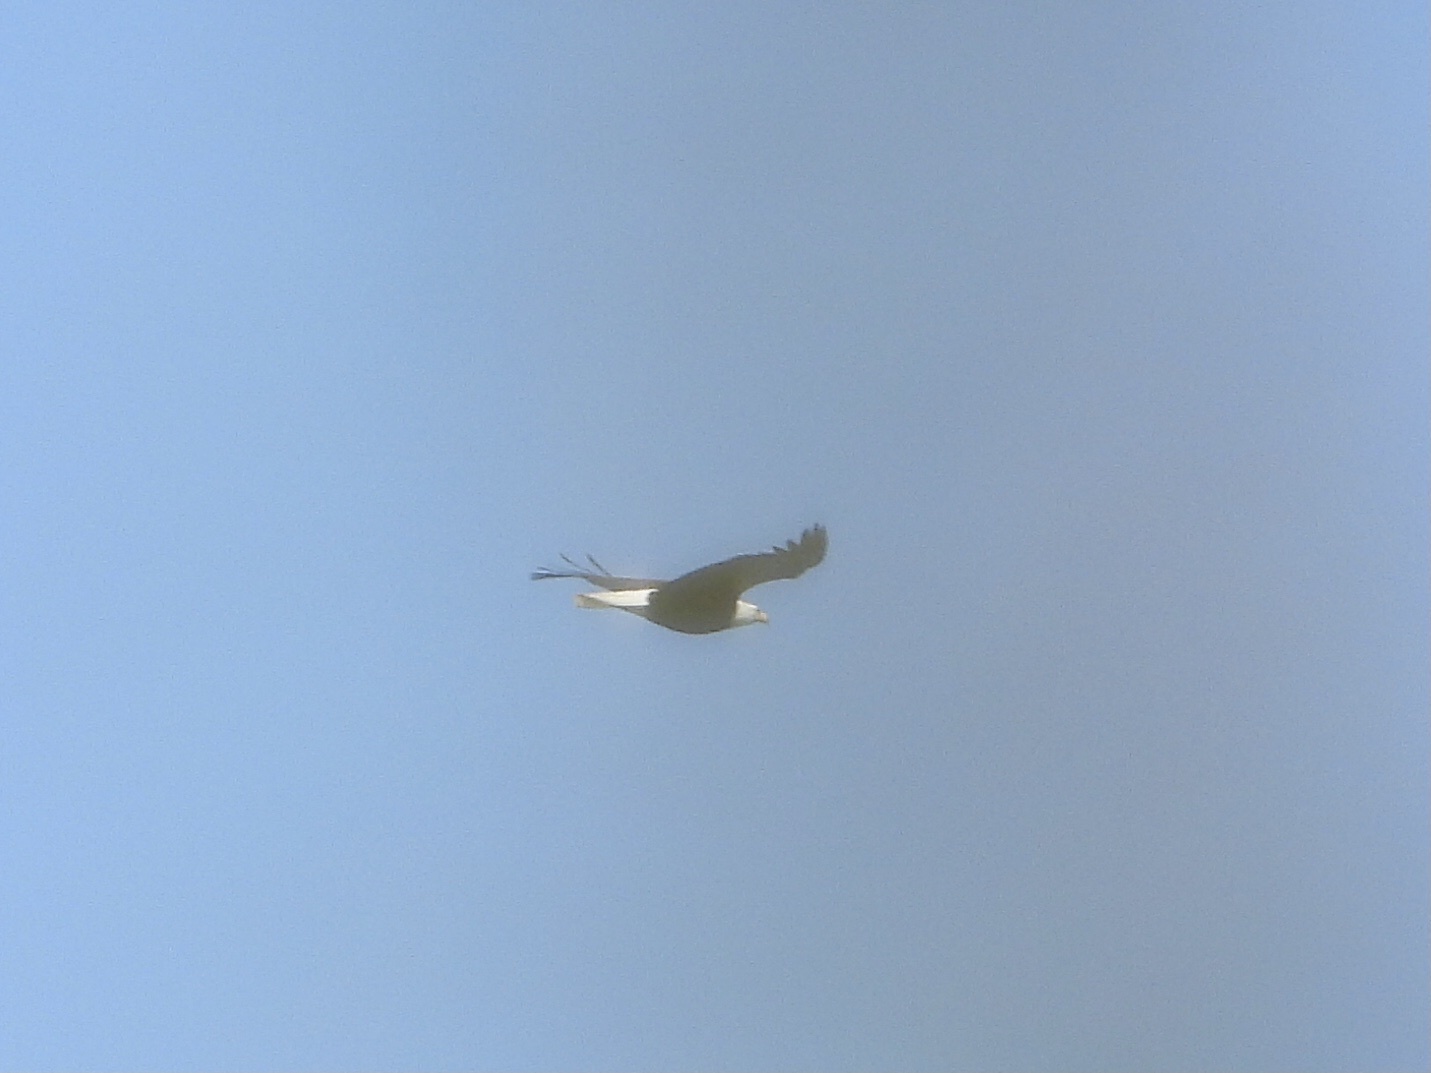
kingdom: Animalia
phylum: Chordata
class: Aves
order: Accipitriformes
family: Accipitridae
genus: Haliaeetus
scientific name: Haliaeetus leucocephalus
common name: Bald eagle
